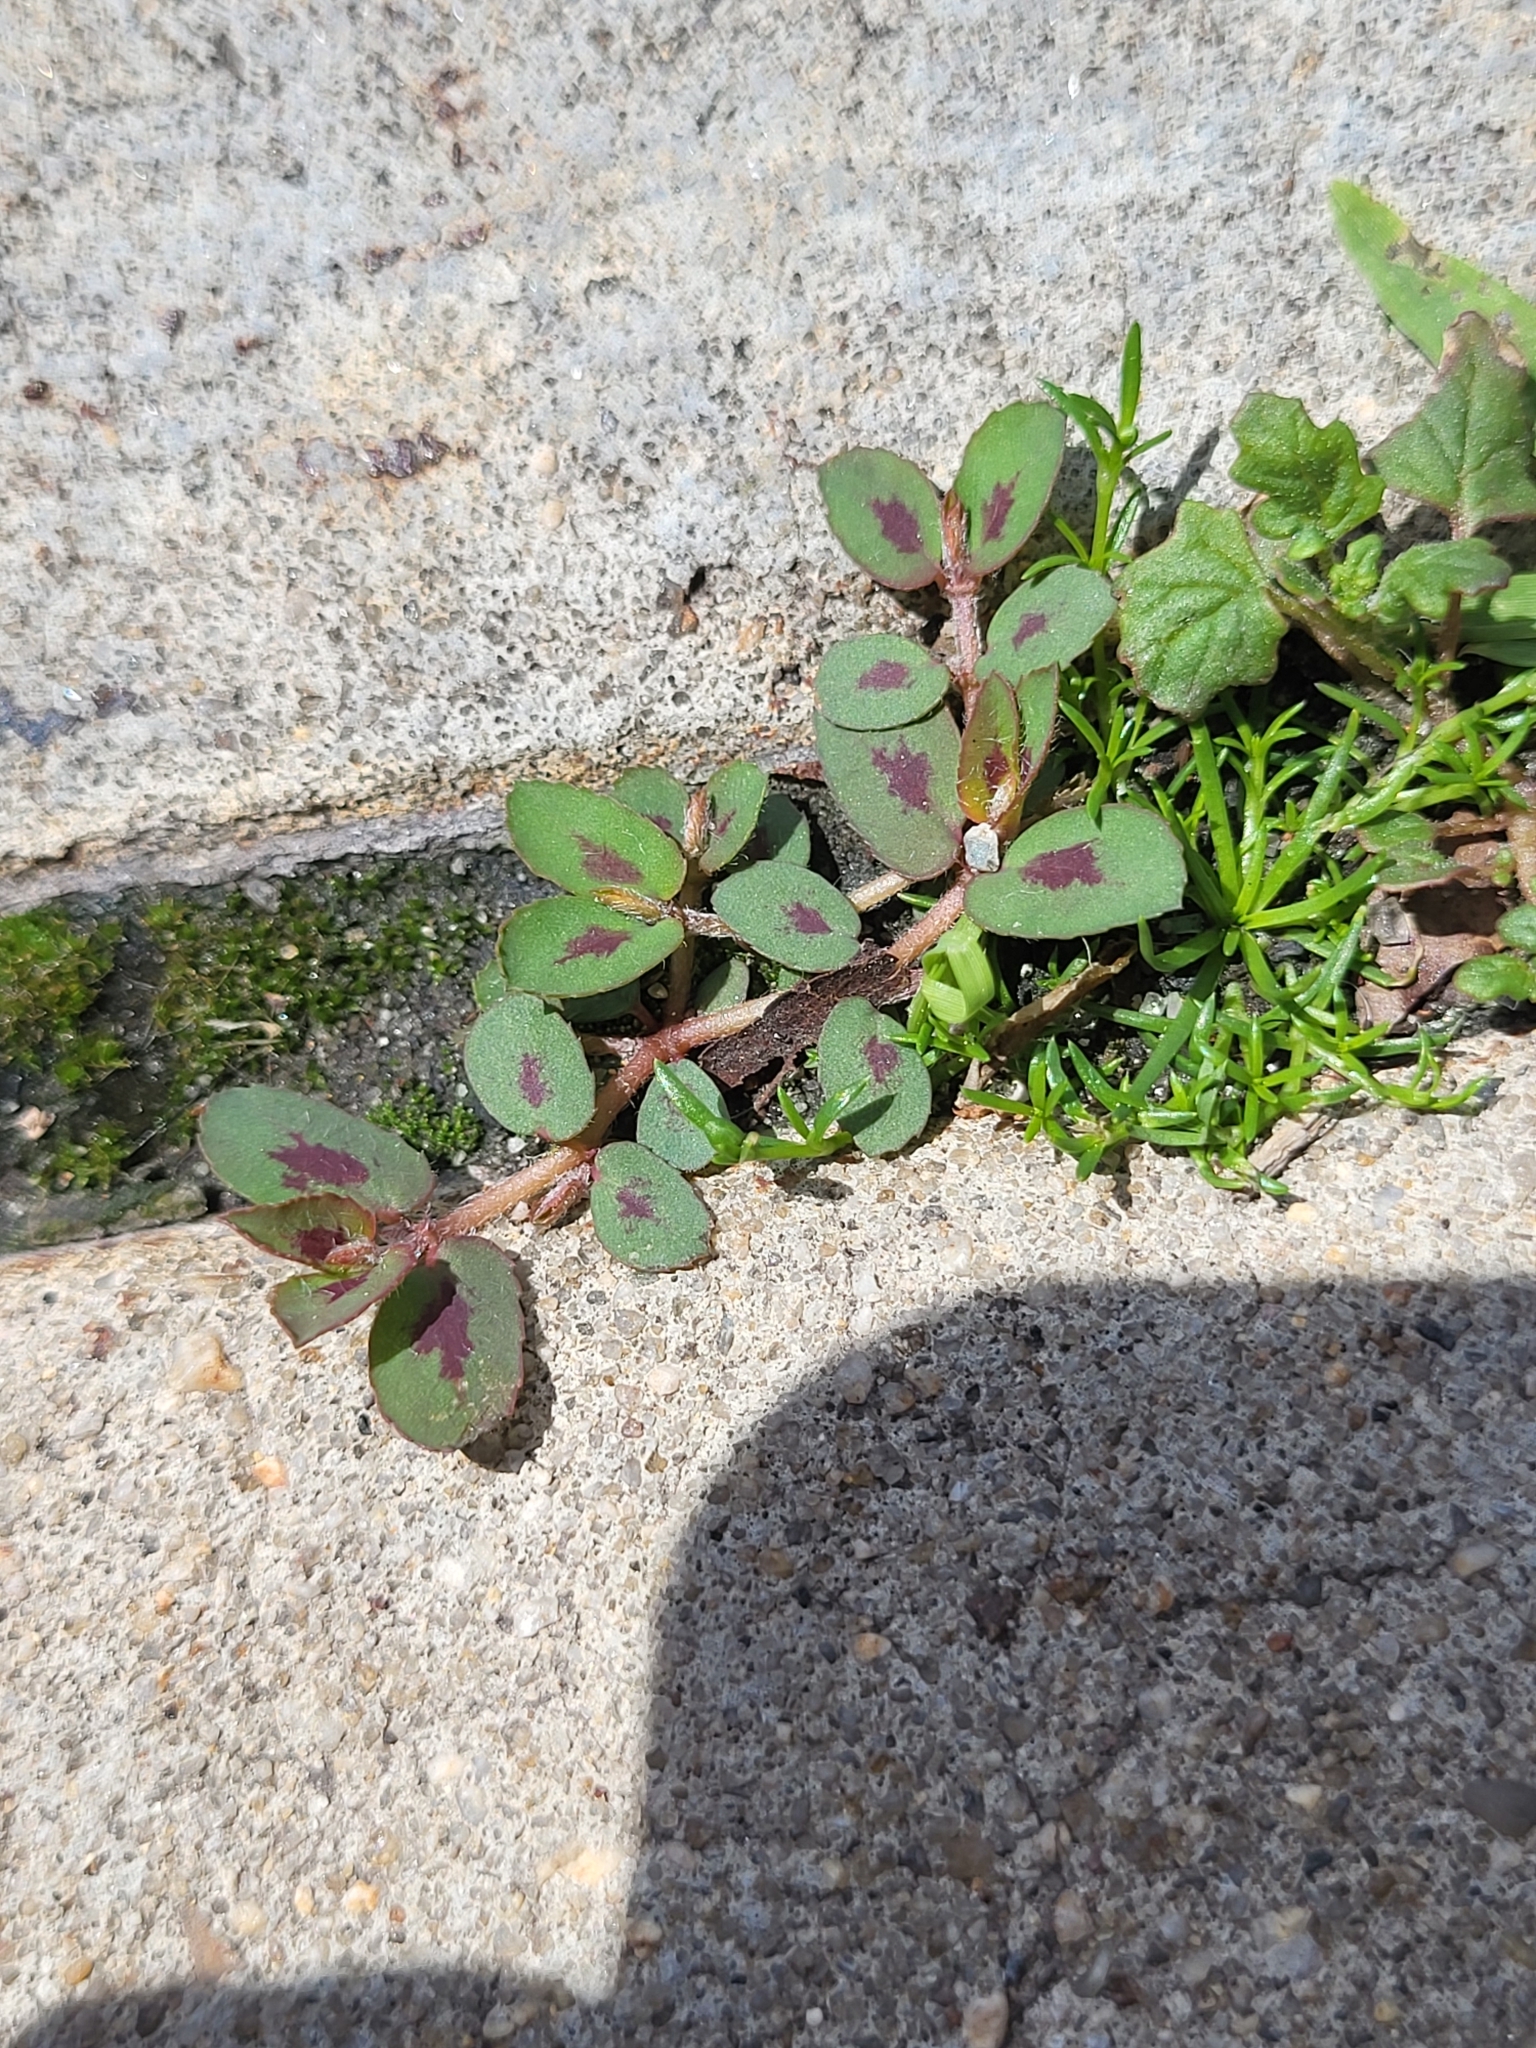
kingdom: Plantae
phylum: Tracheophyta
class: Magnoliopsida
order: Malpighiales
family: Euphorbiaceae
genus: Euphorbia
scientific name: Euphorbia maculata
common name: Spotted spurge
